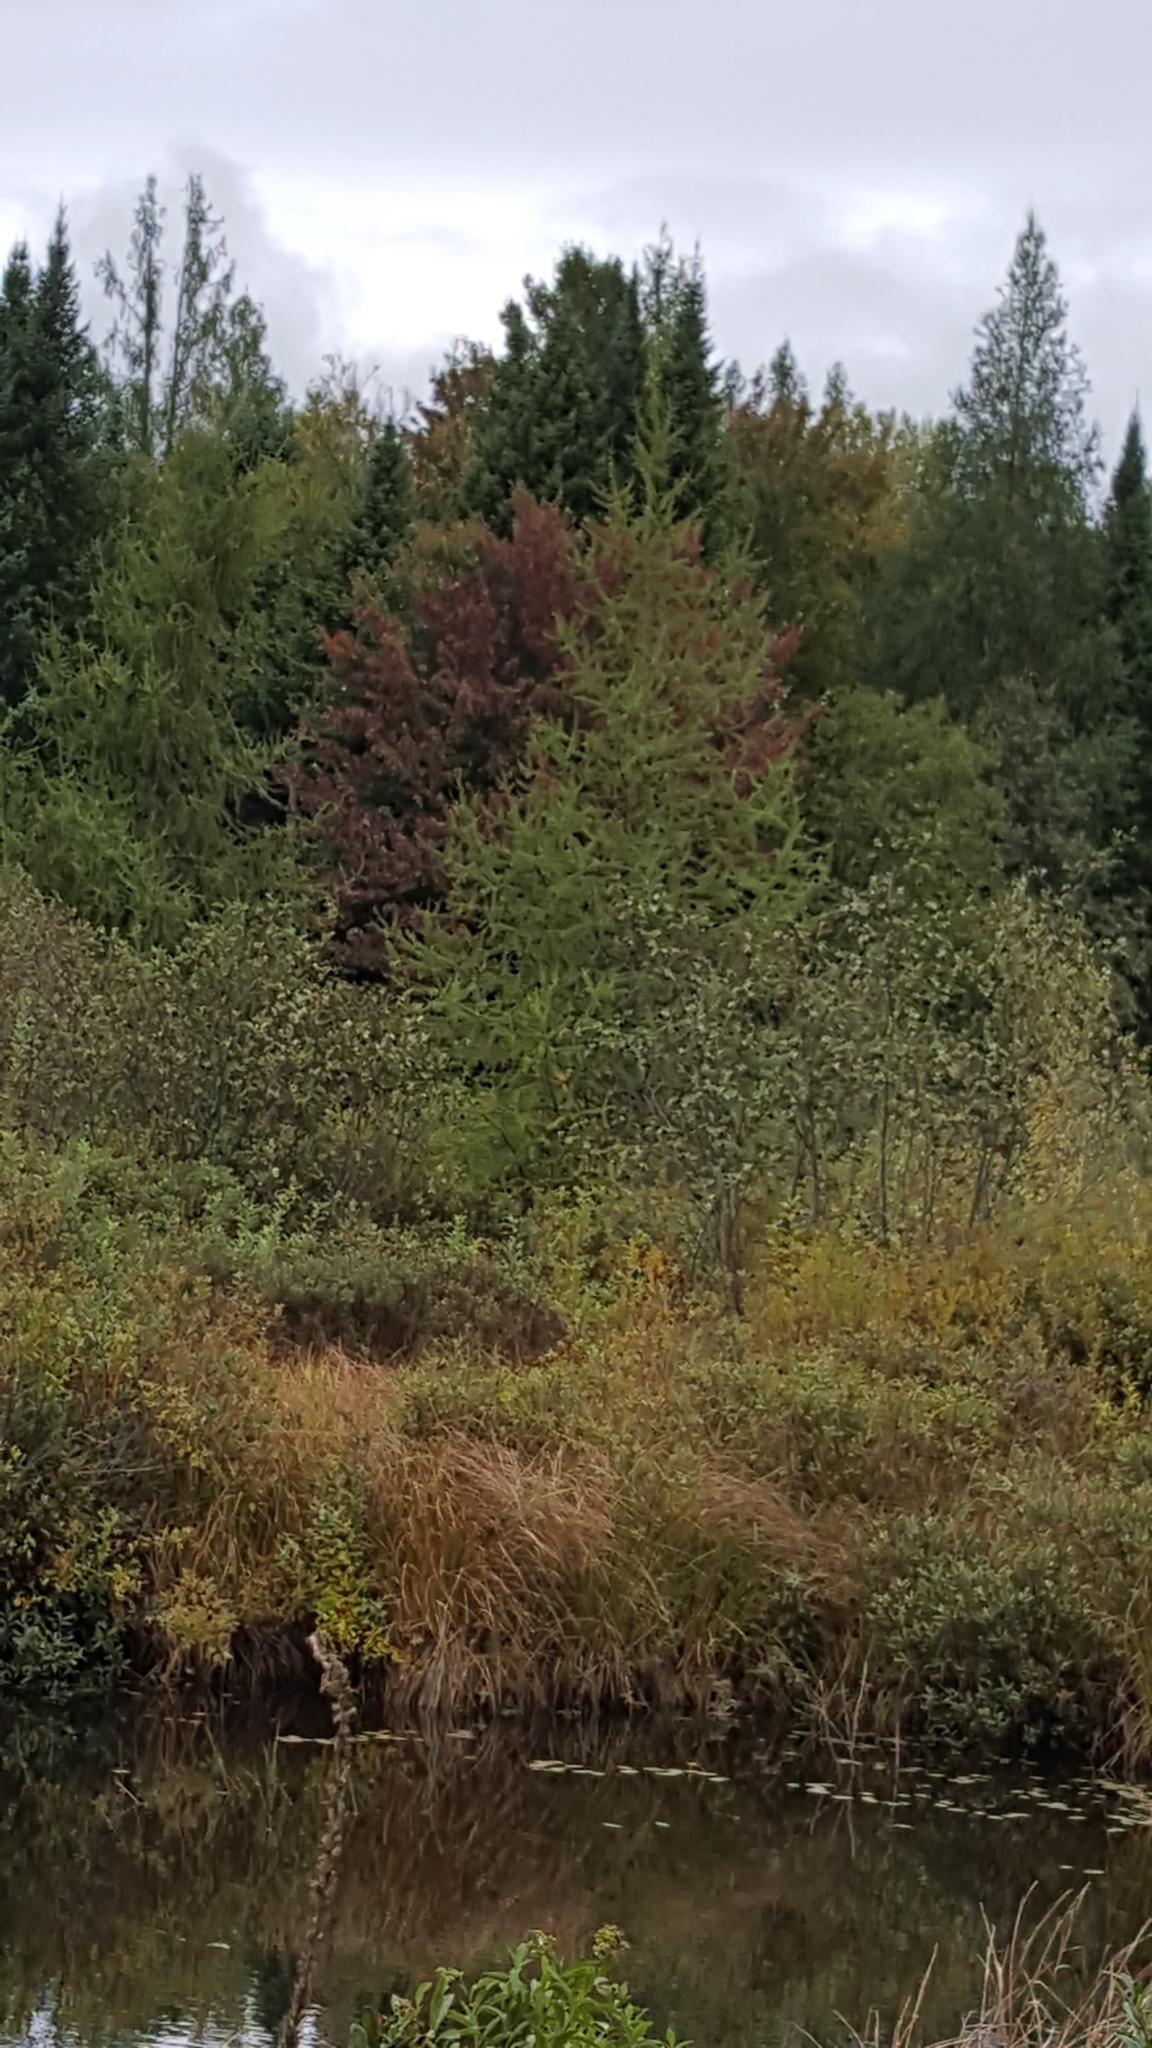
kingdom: Plantae
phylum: Tracheophyta
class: Pinopsida
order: Pinales
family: Pinaceae
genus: Larix
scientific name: Larix laricina
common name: American larch
